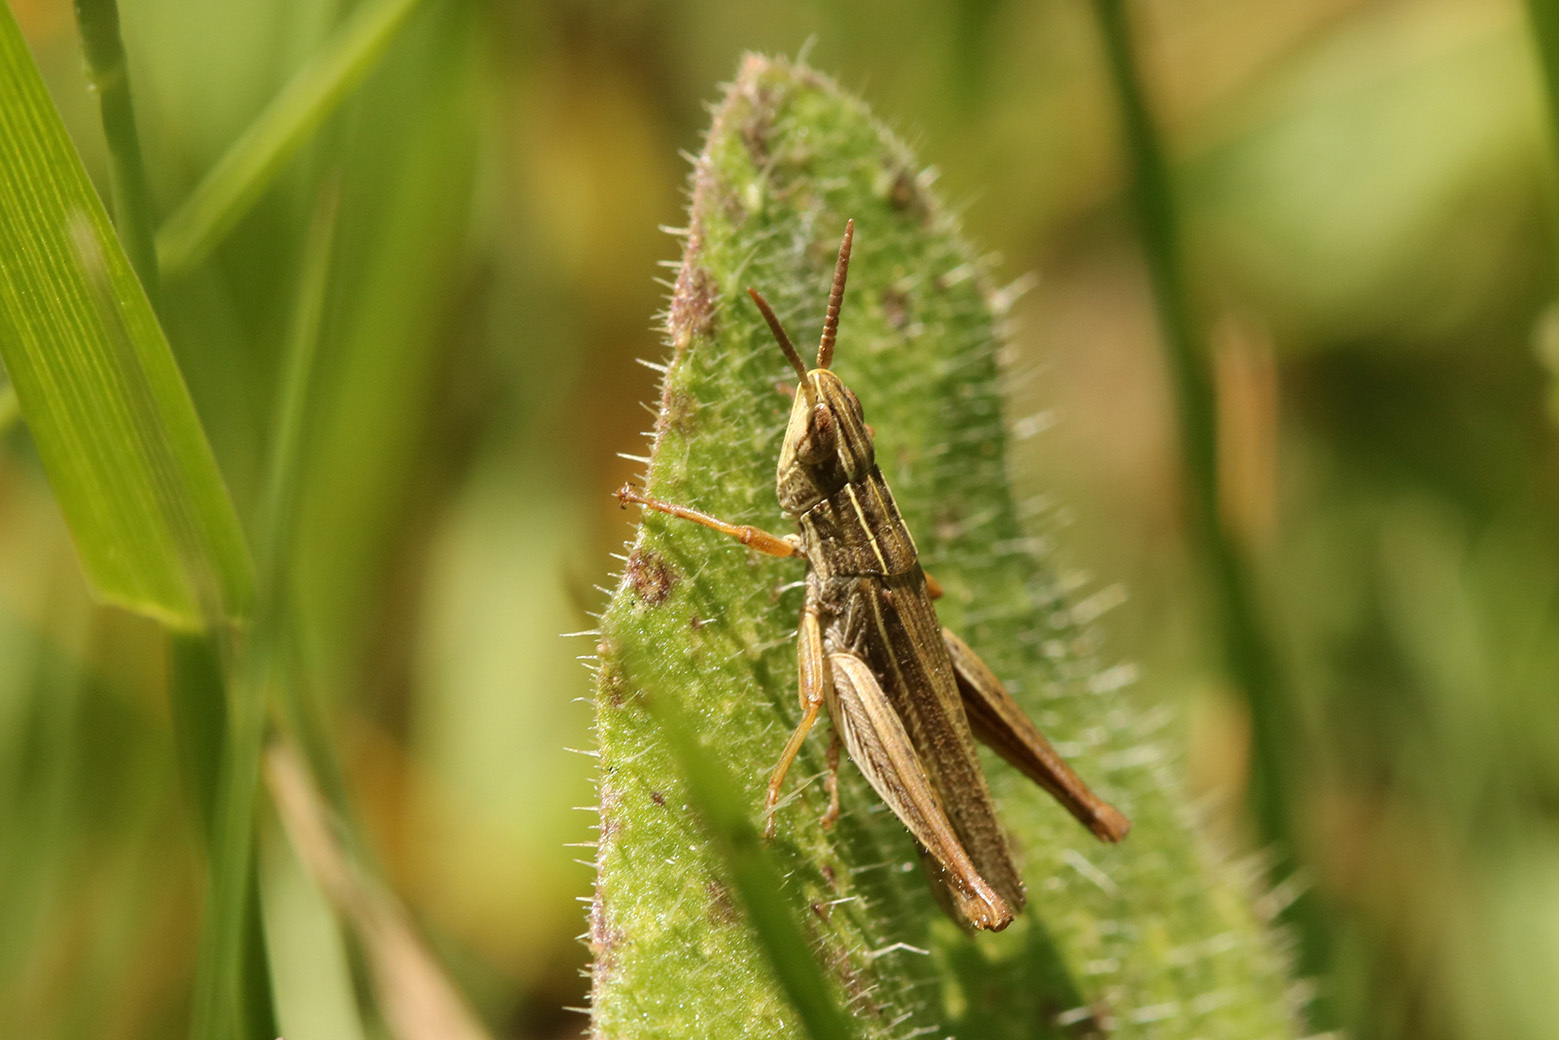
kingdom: Animalia
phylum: Arthropoda
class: Insecta
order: Orthoptera
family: Acrididae
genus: Laplatacris
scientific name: Laplatacris dispar
